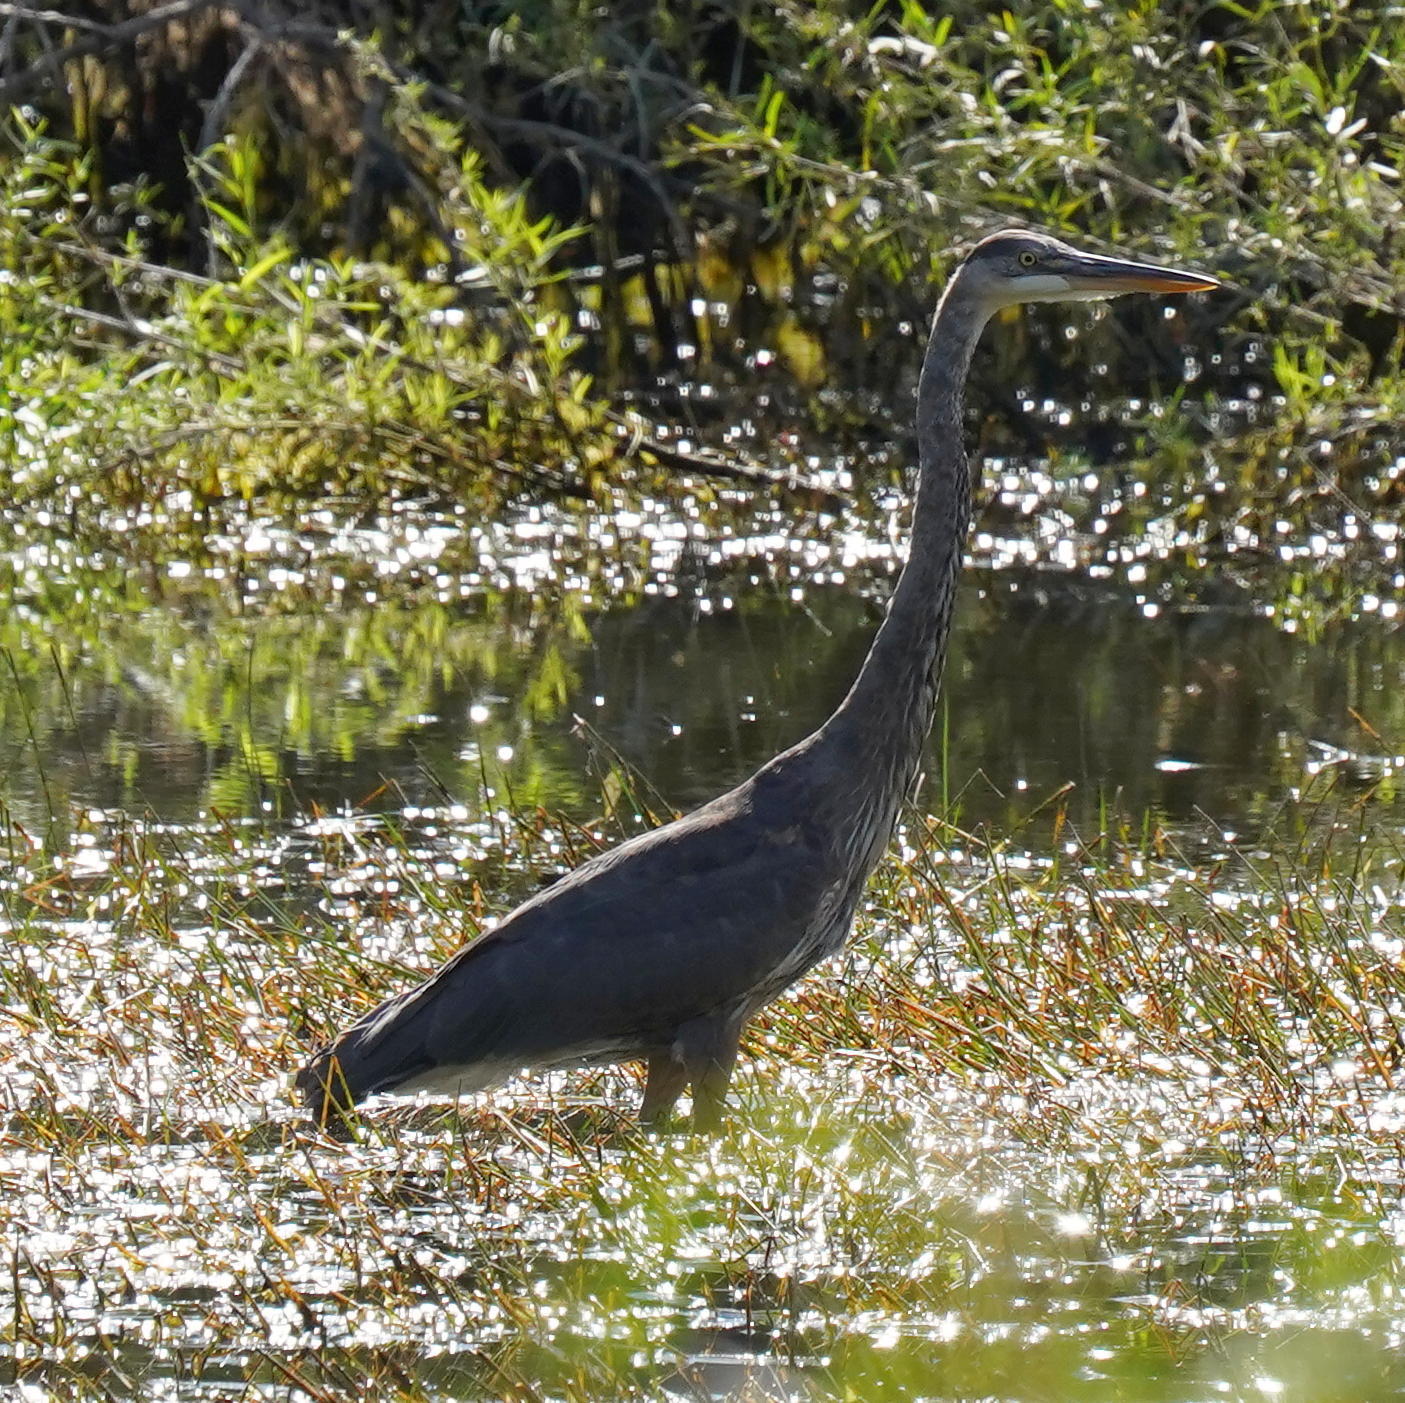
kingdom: Animalia
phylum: Chordata
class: Aves
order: Pelecaniformes
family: Ardeidae
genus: Ardea
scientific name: Ardea herodias
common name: Great blue heron
